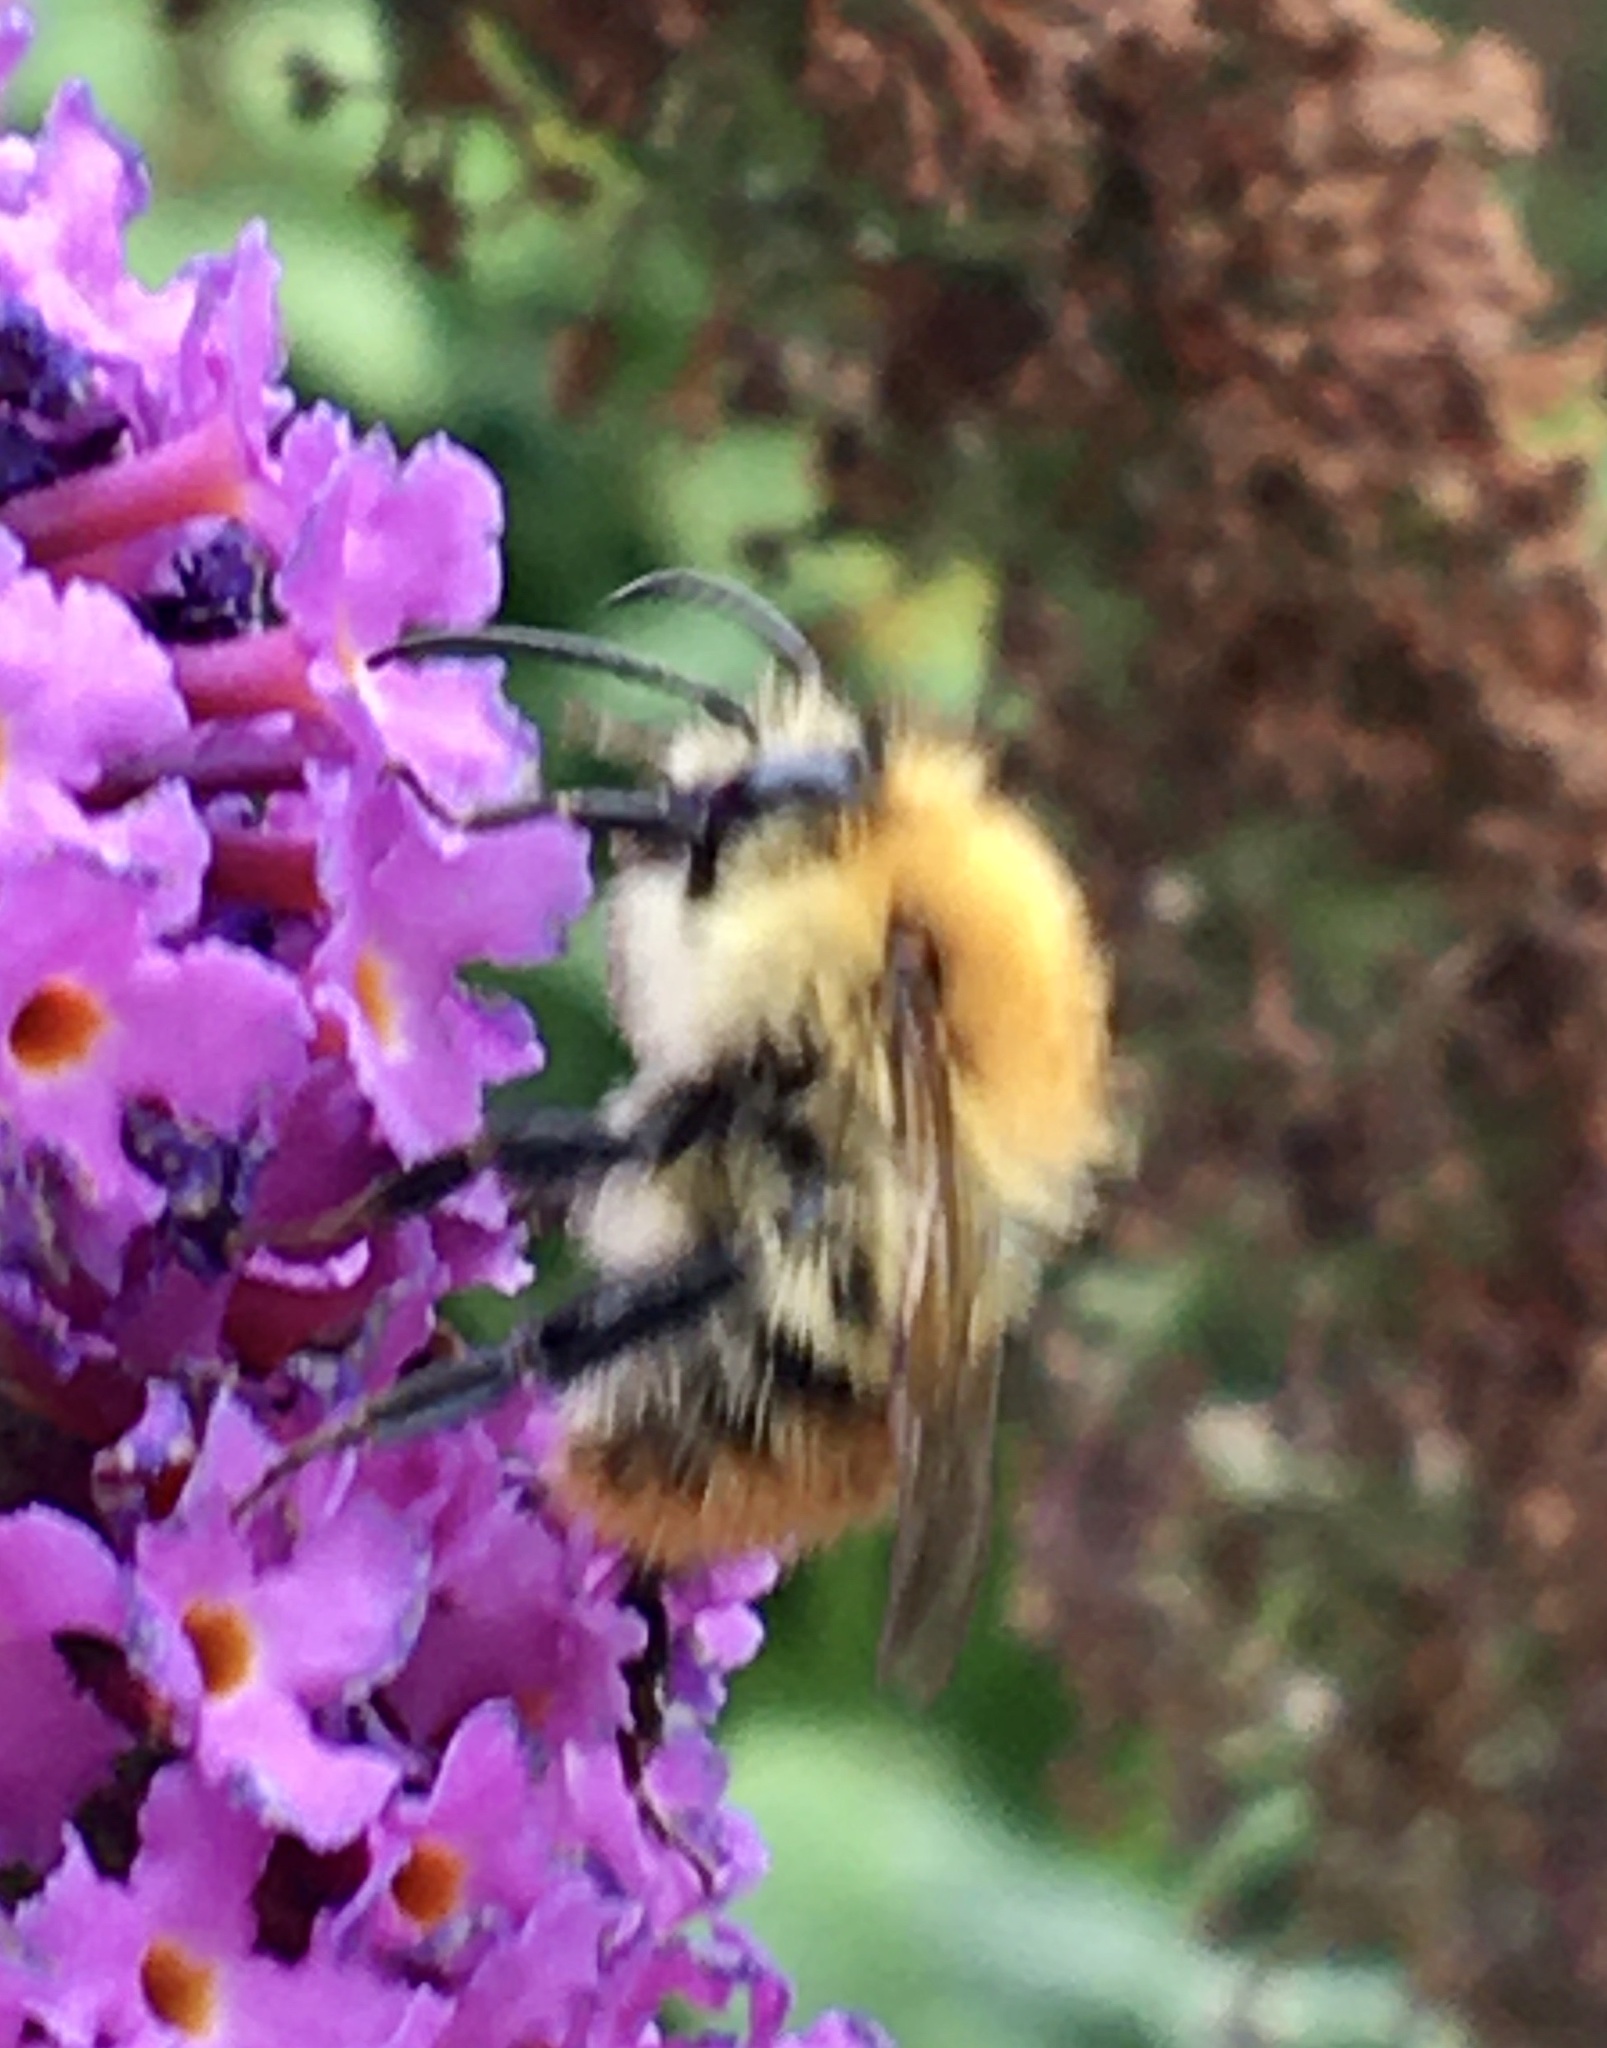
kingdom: Animalia
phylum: Arthropoda
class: Insecta
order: Hymenoptera
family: Apidae
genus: Bombus
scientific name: Bombus pascuorum
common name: Common carder bee
